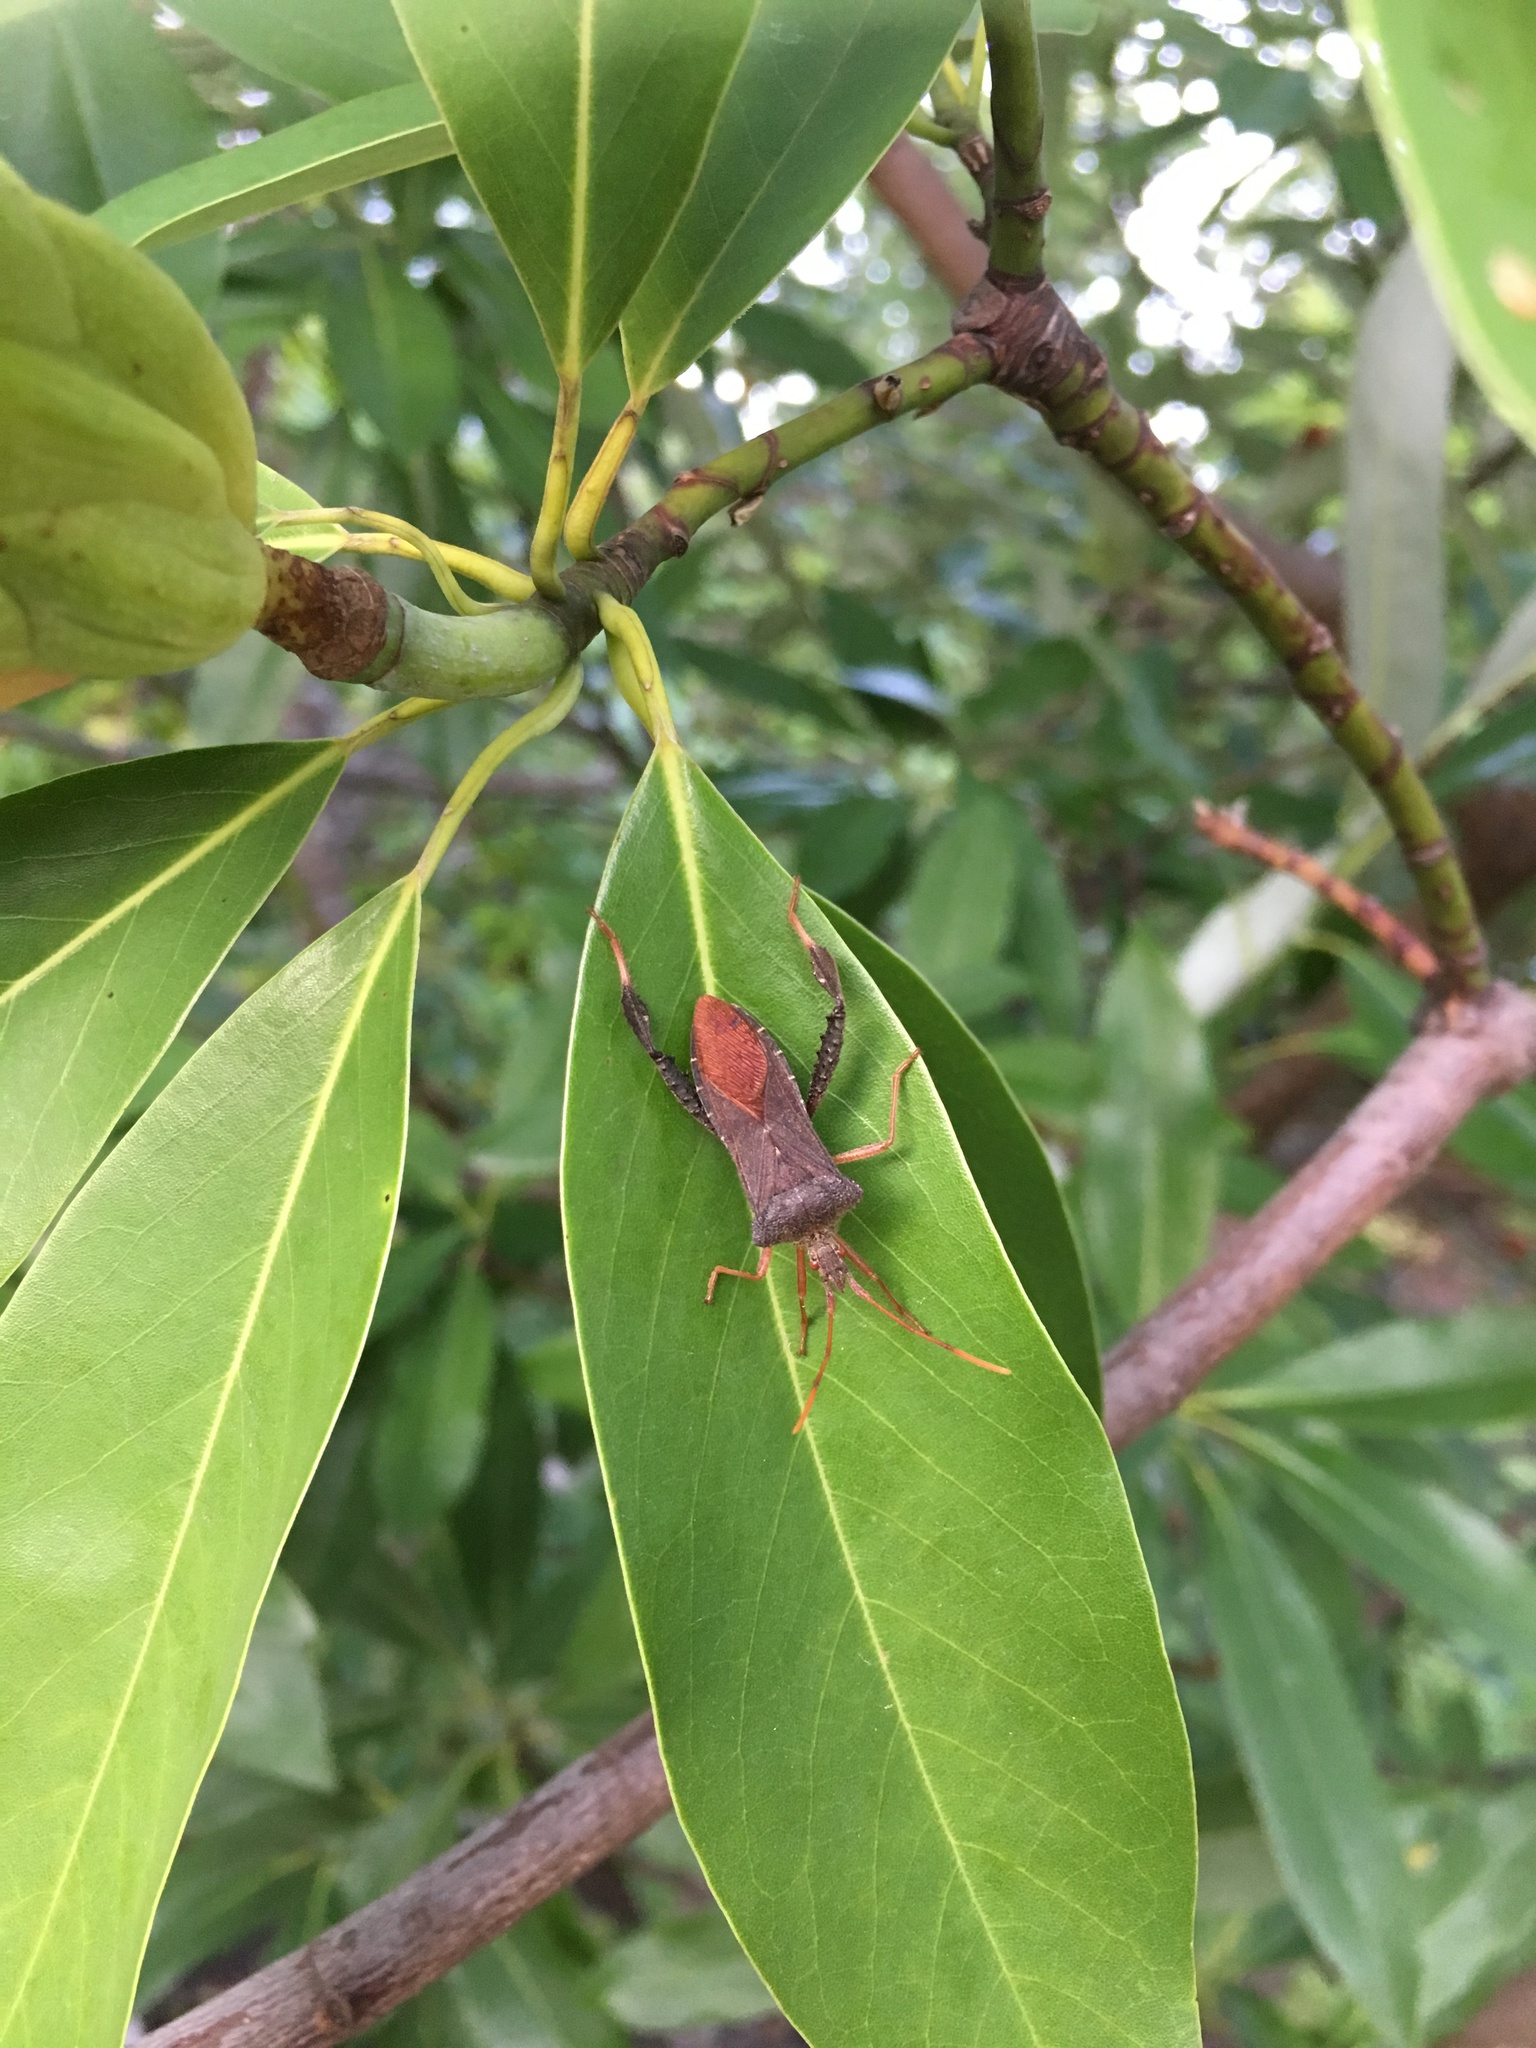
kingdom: Animalia
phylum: Arthropoda
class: Insecta
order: Hemiptera
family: Coreidae
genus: Leptoglossus
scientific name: Leptoglossus fulvicornis
